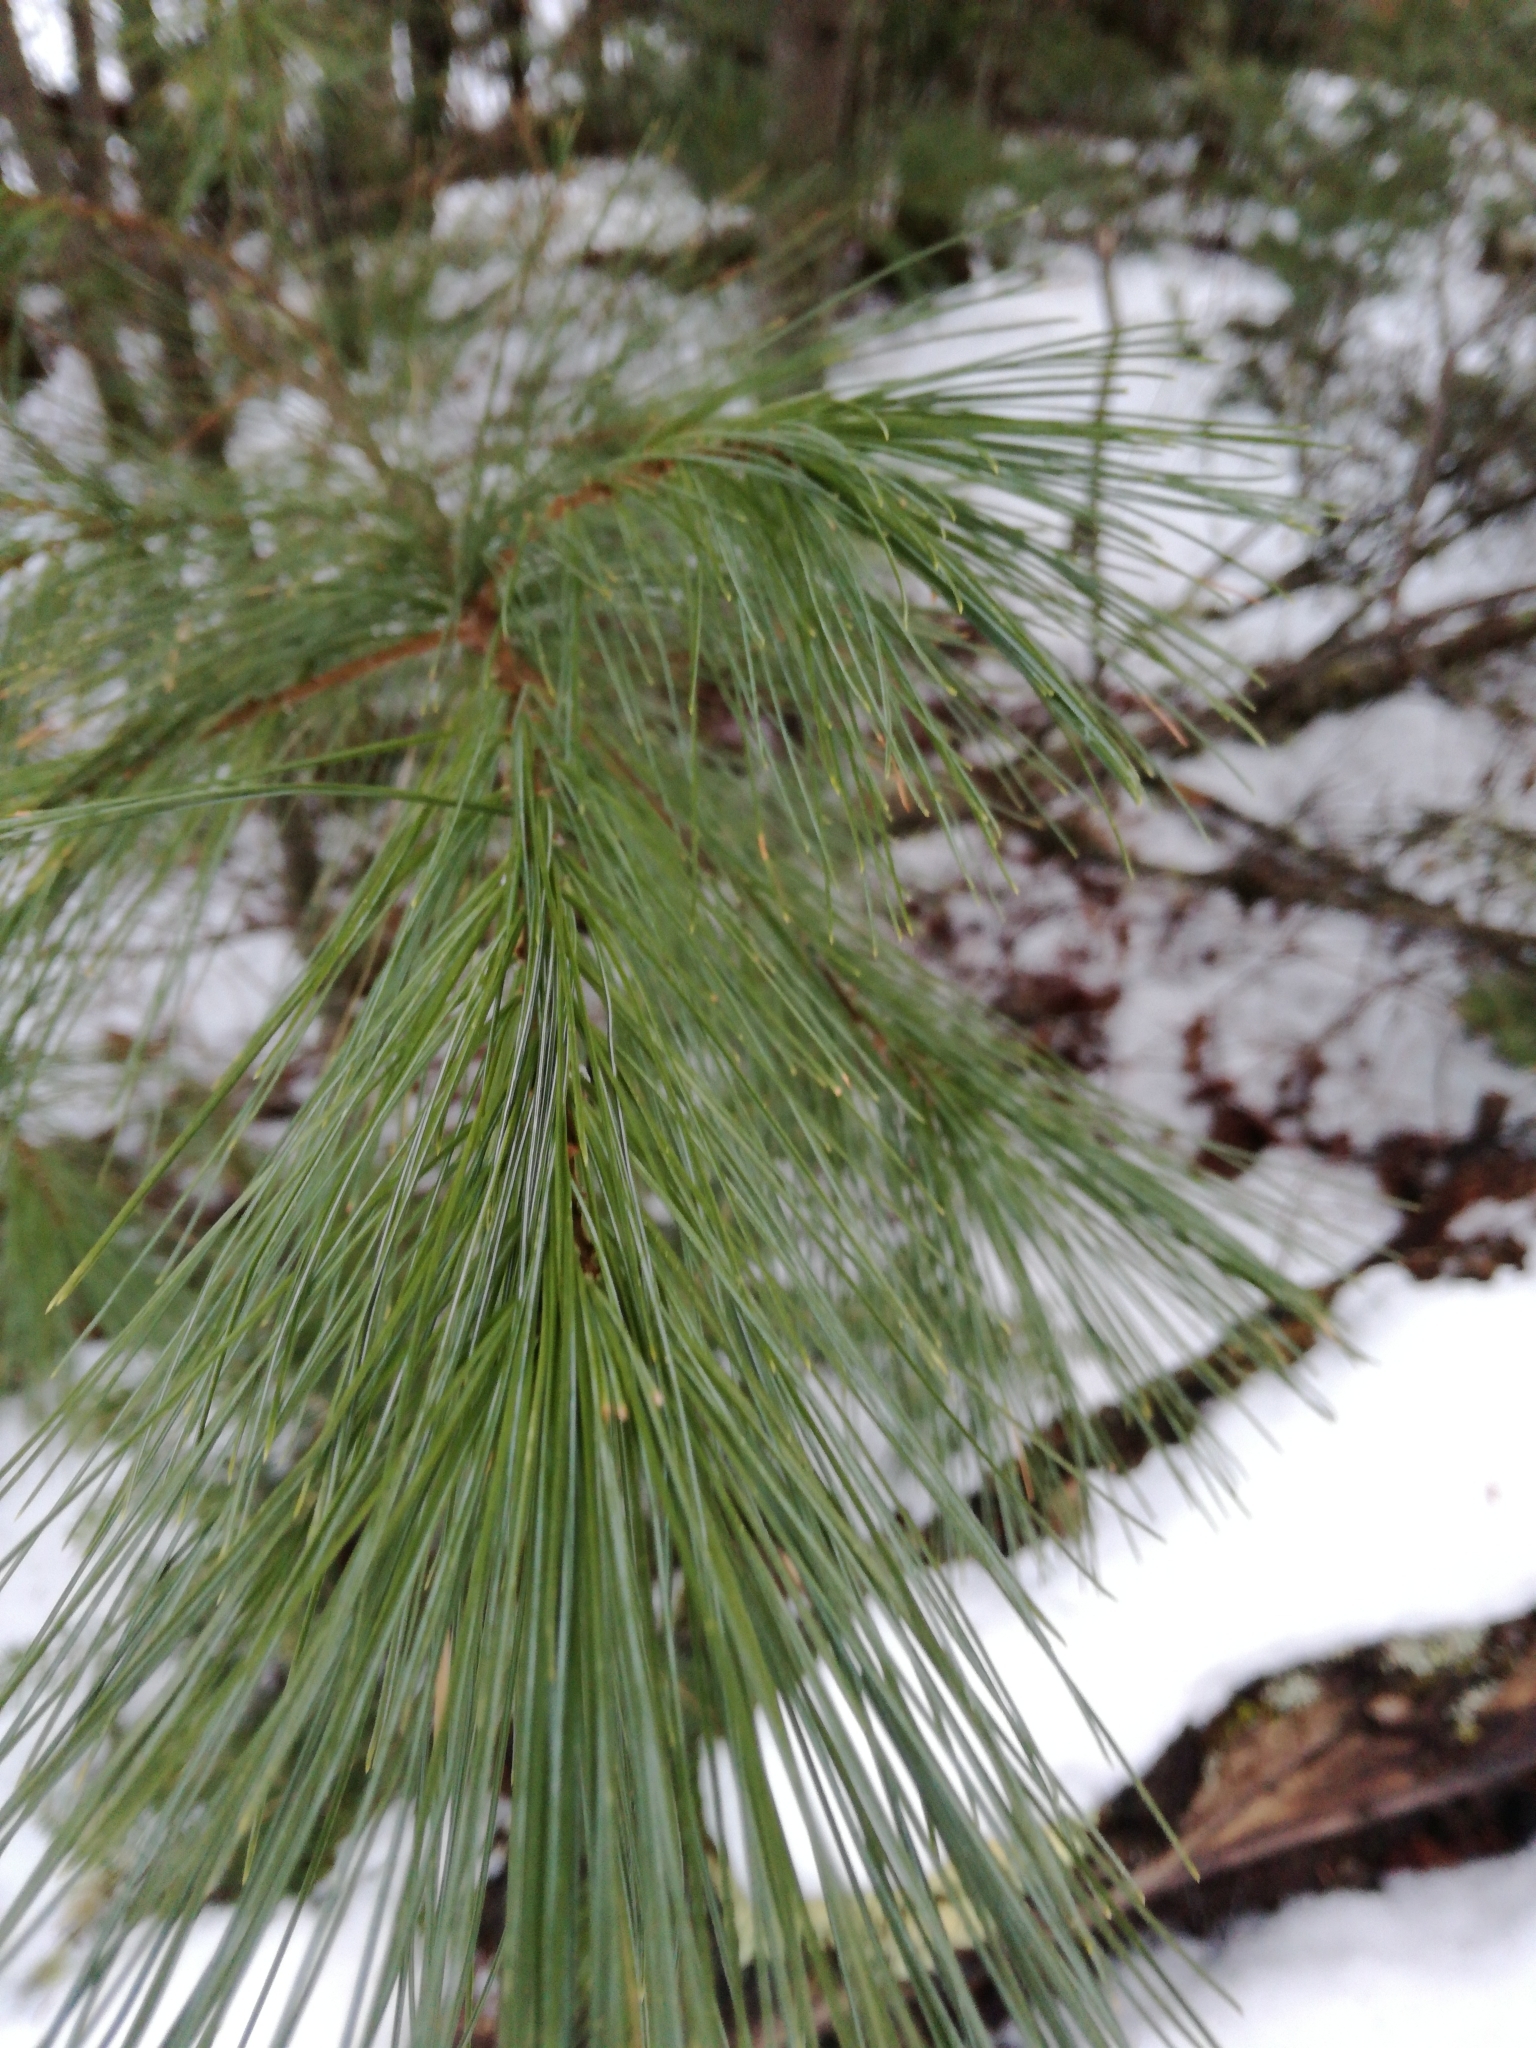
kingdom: Plantae
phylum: Tracheophyta
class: Pinopsida
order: Pinales
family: Pinaceae
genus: Pinus
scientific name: Pinus strobus
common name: Weymouth pine
